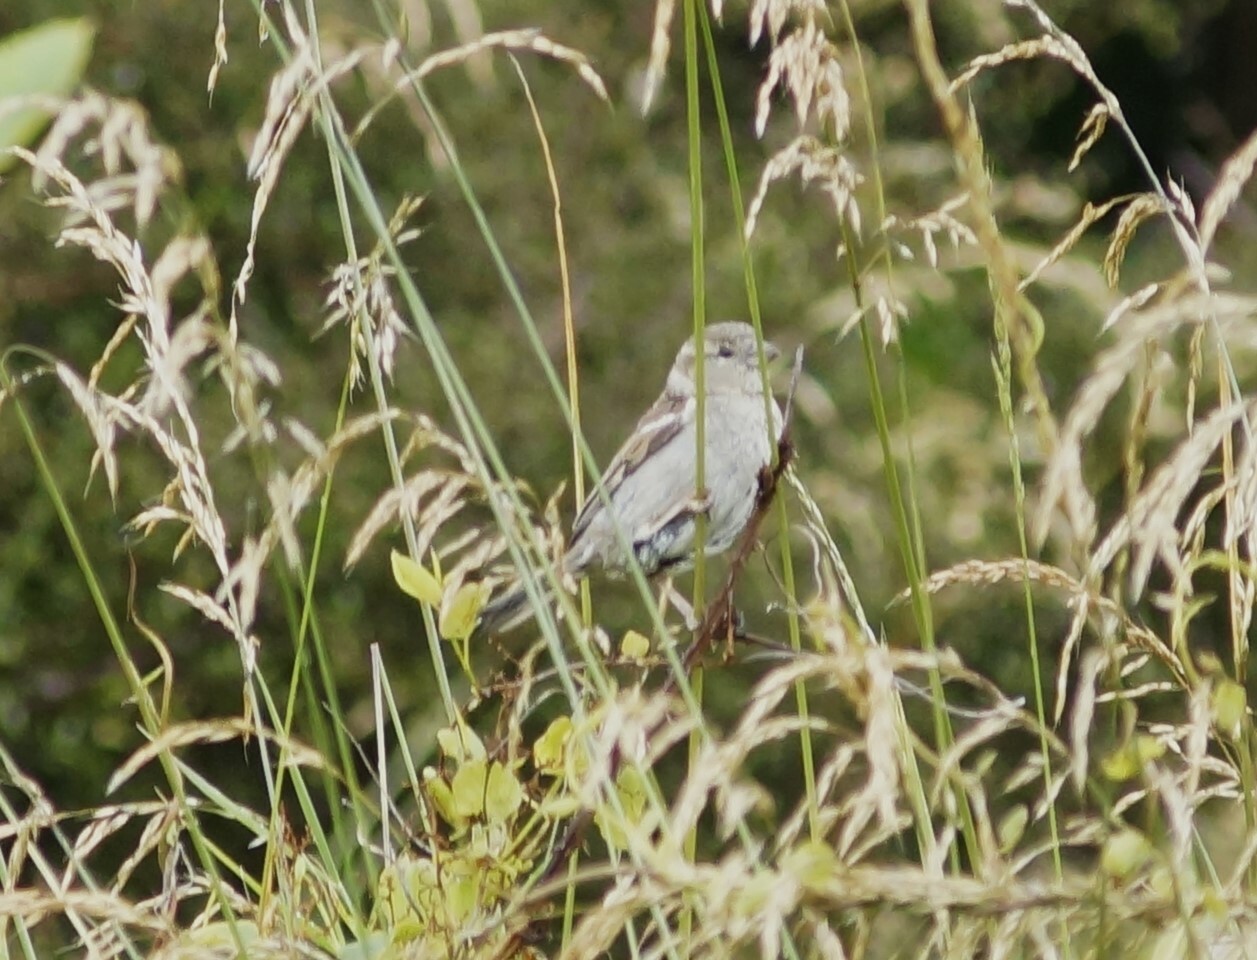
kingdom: Animalia
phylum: Chordata
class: Aves
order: Passeriformes
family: Passeridae
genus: Passer
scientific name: Passer domesticus
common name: House sparrow
